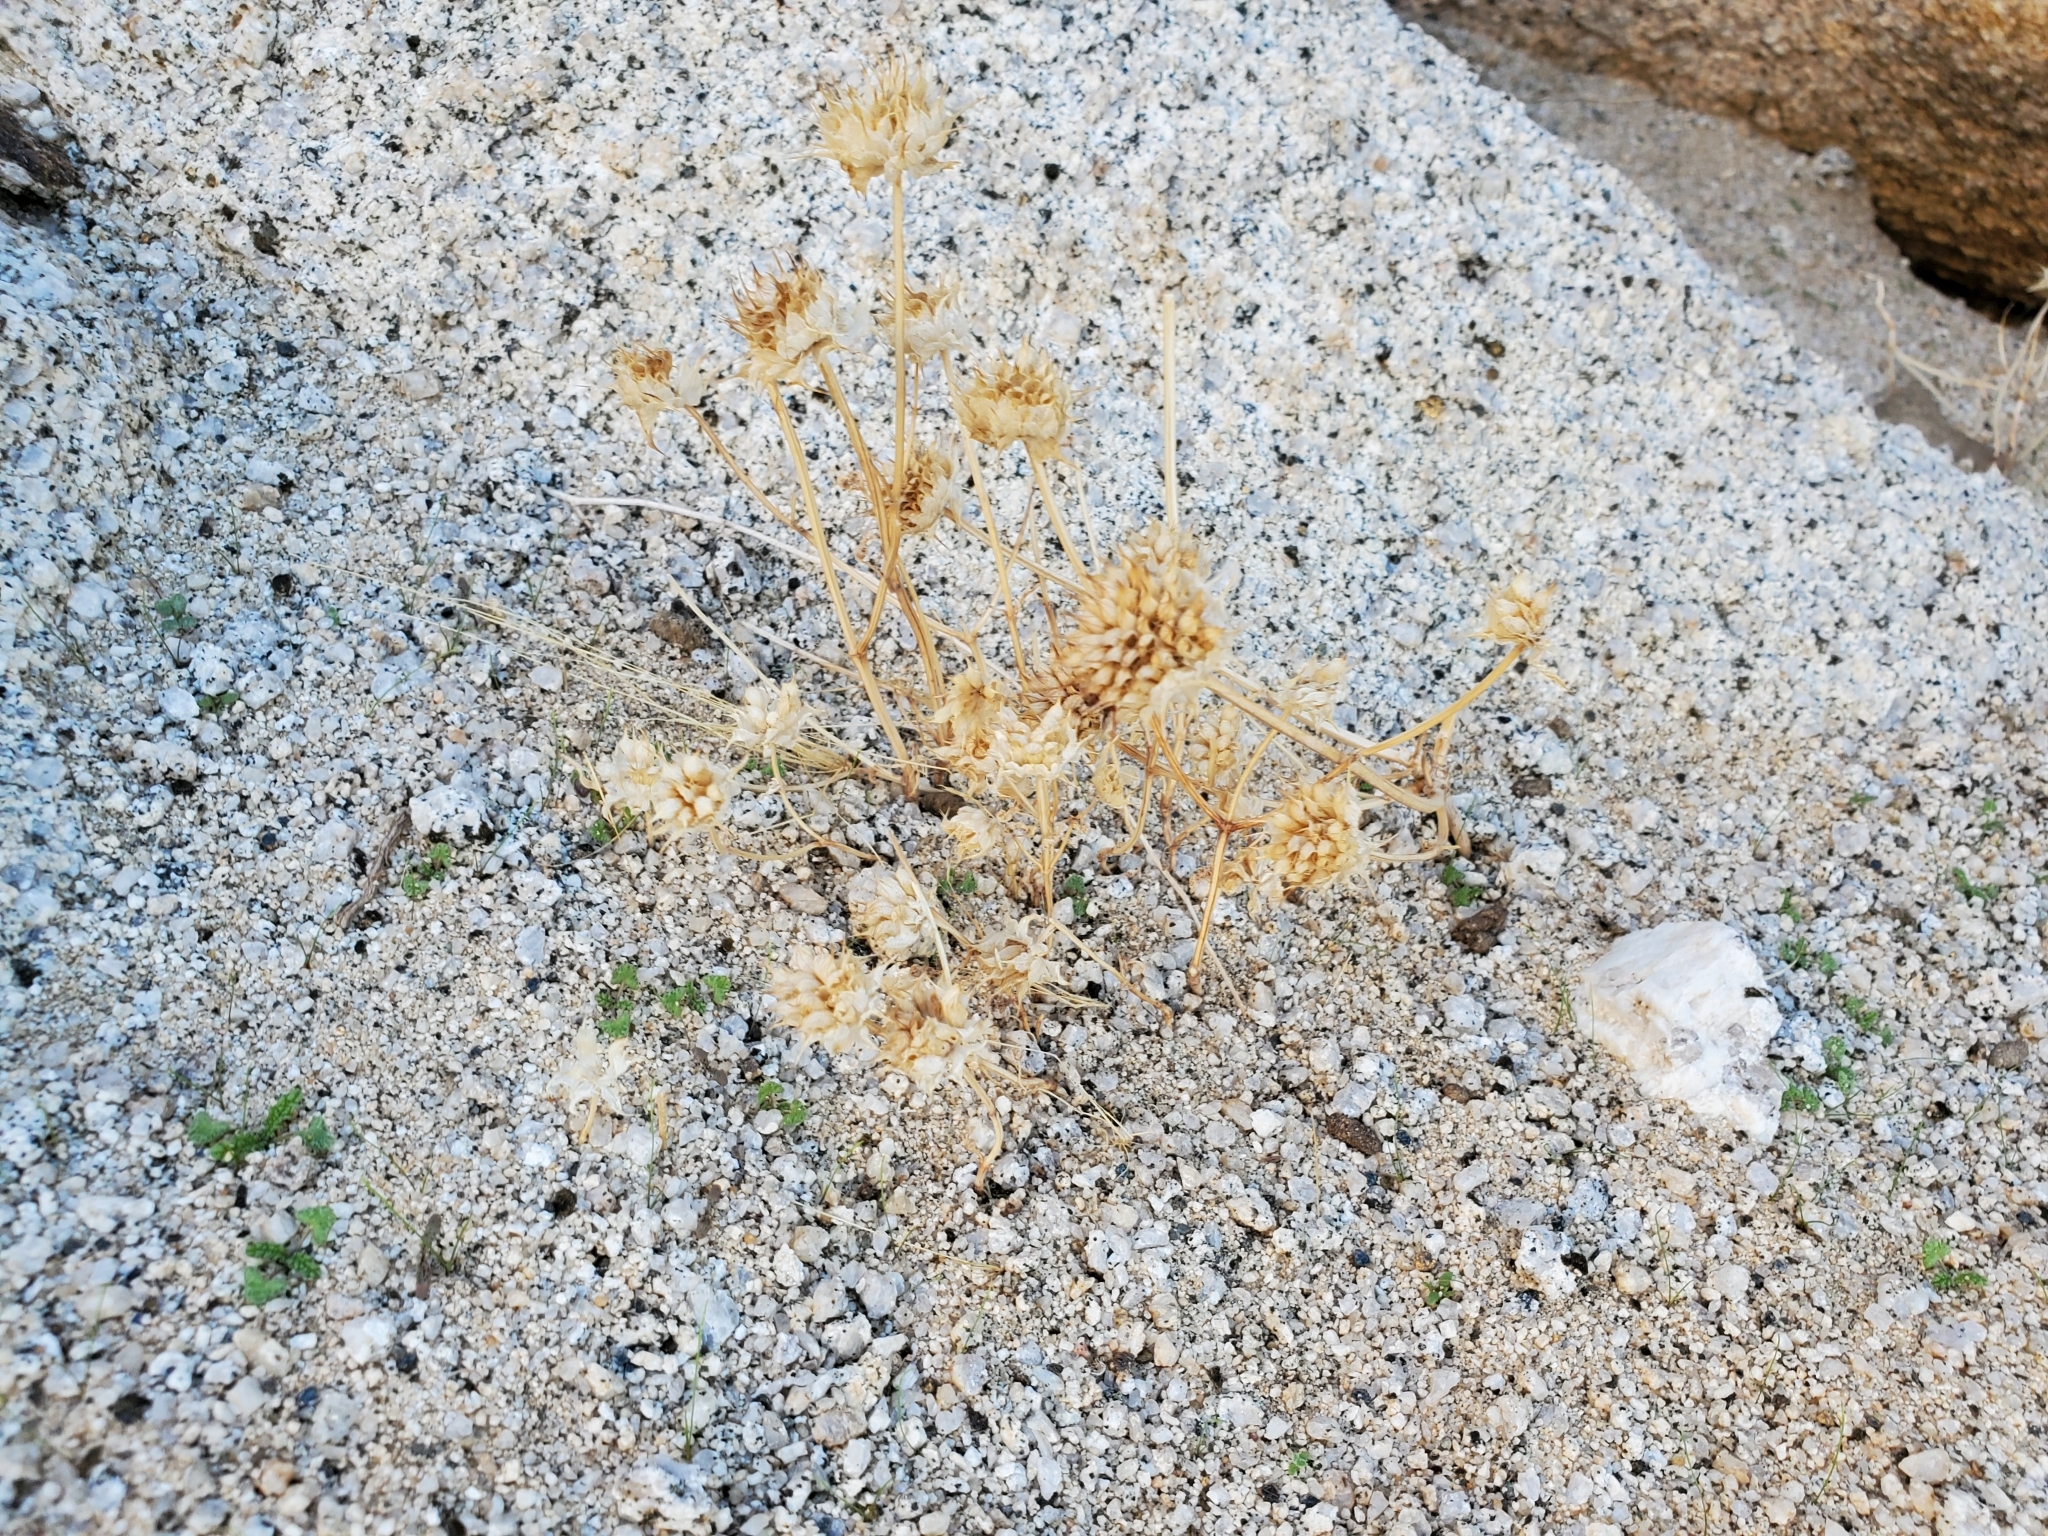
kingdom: Plantae
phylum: Tracheophyta
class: Magnoliopsida
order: Lamiales
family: Lamiaceae
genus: Salvia
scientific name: Salvia columbariae
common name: Chia
